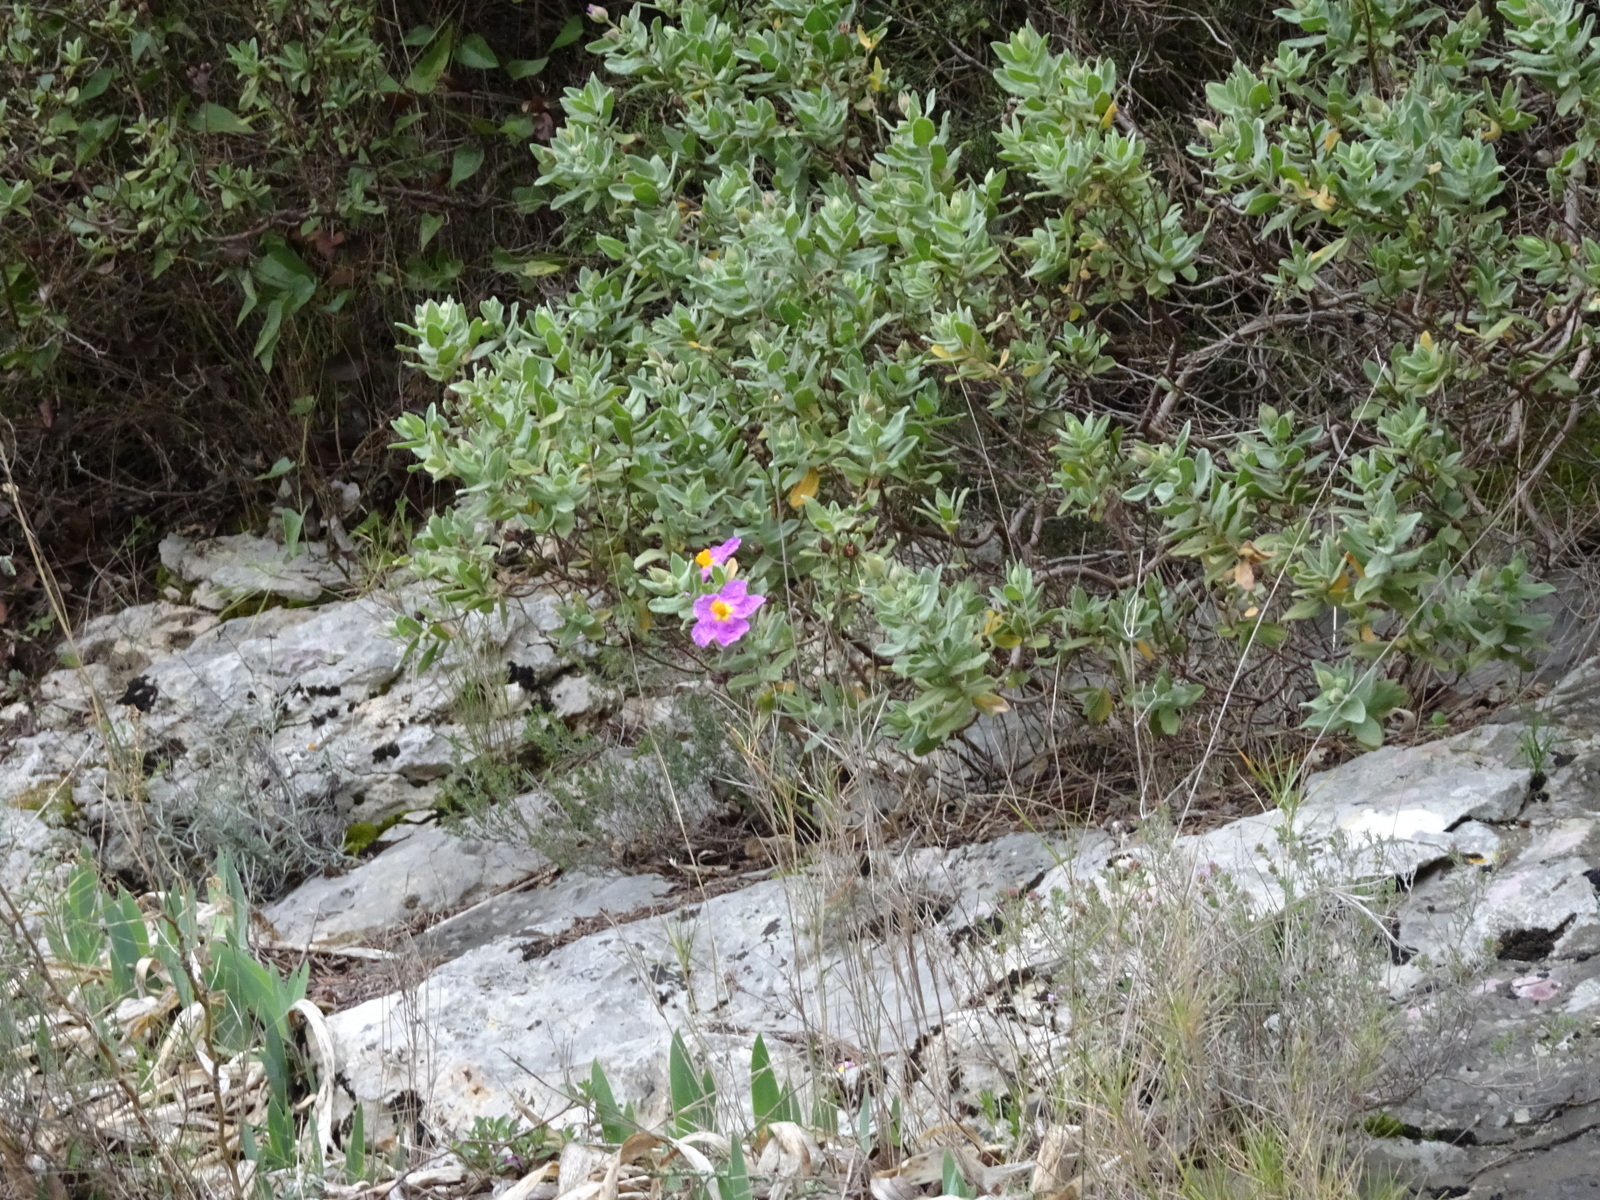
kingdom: Plantae
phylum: Tracheophyta
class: Magnoliopsida
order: Malvales
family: Cistaceae
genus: Cistus
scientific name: Cistus albidus
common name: White-leaf rock-rose
